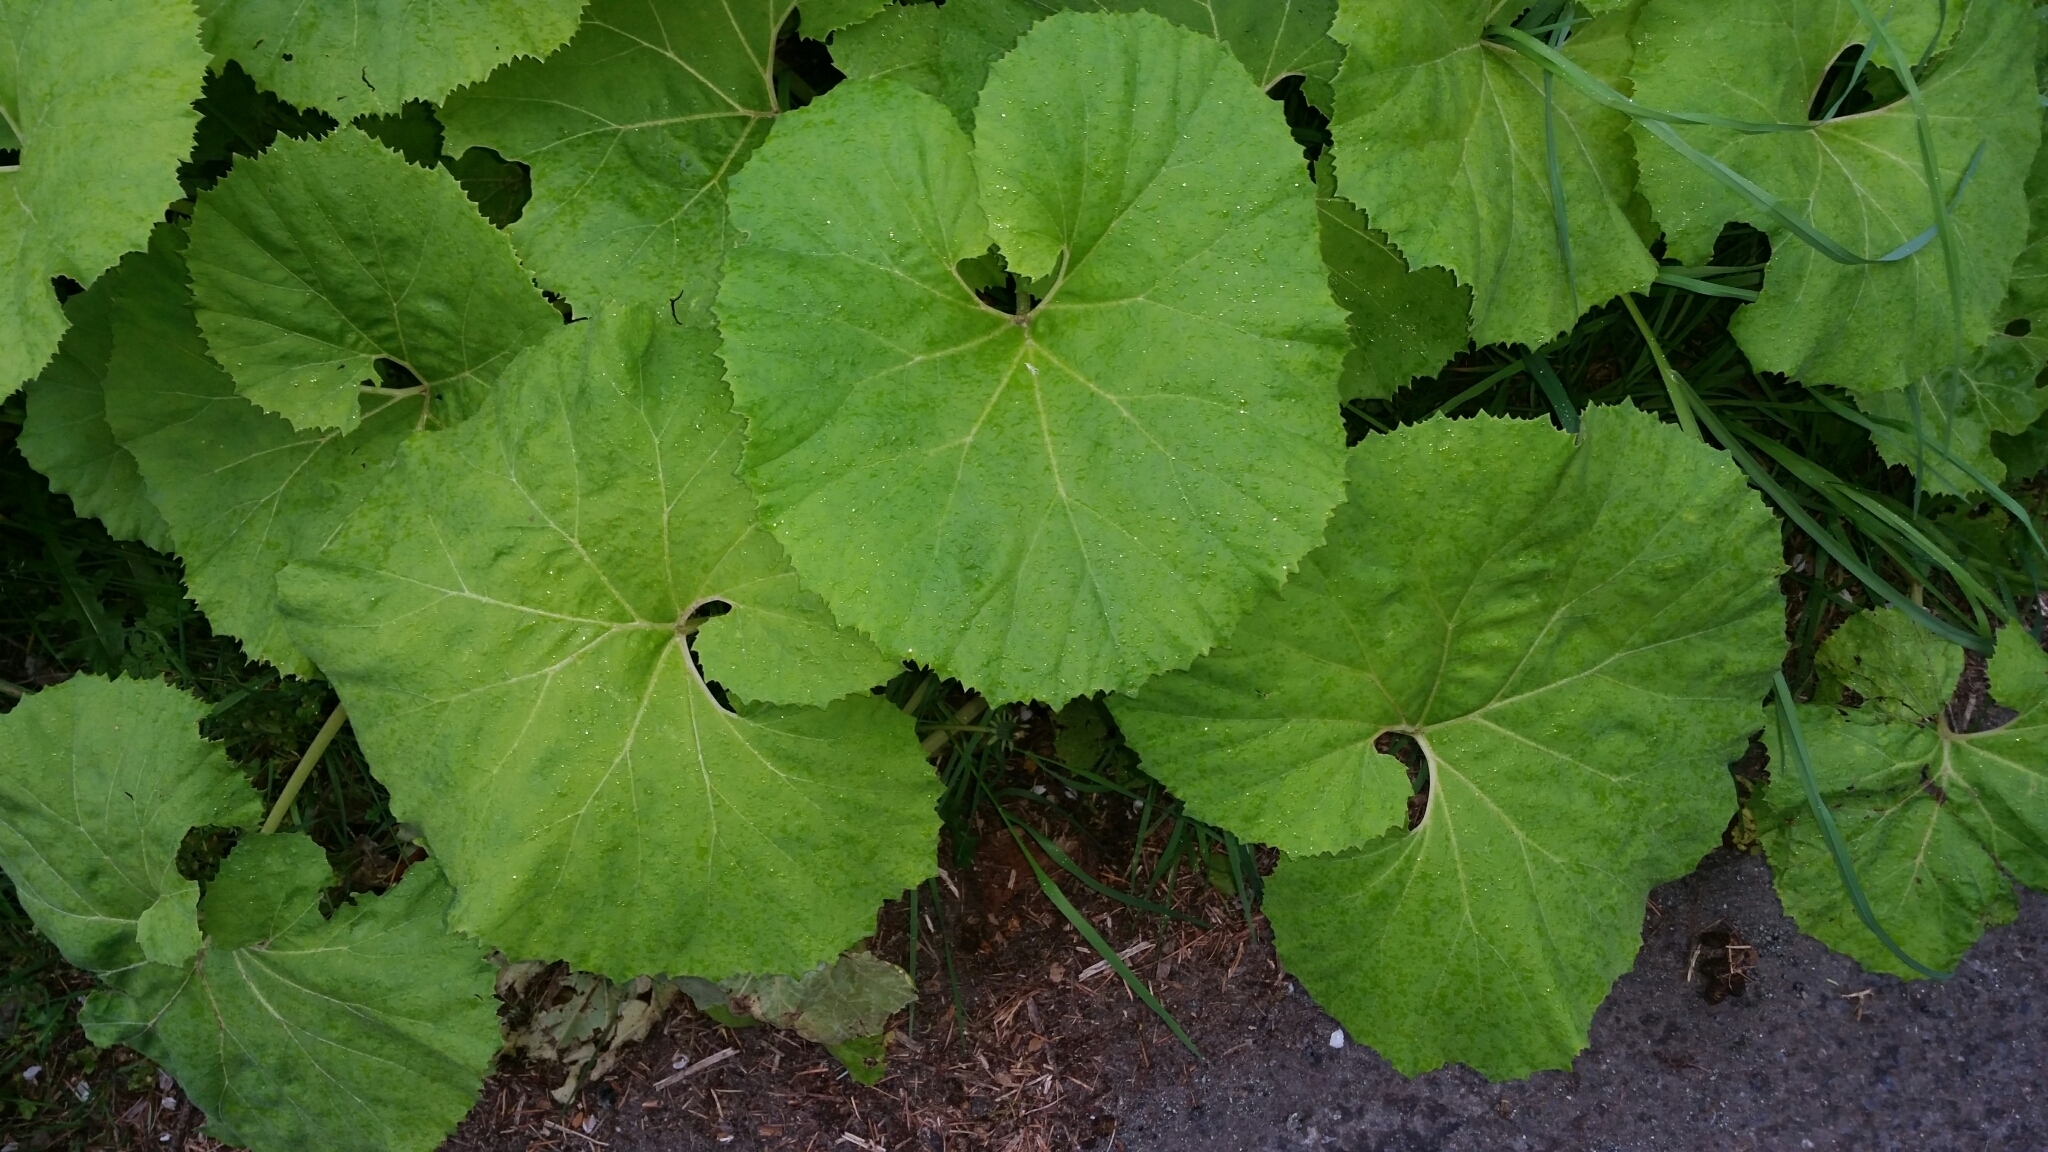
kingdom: Plantae
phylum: Tracheophyta
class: Magnoliopsida
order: Asterales
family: Asteraceae
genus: Petasites
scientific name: Petasites japonicus
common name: Giant butterbur
